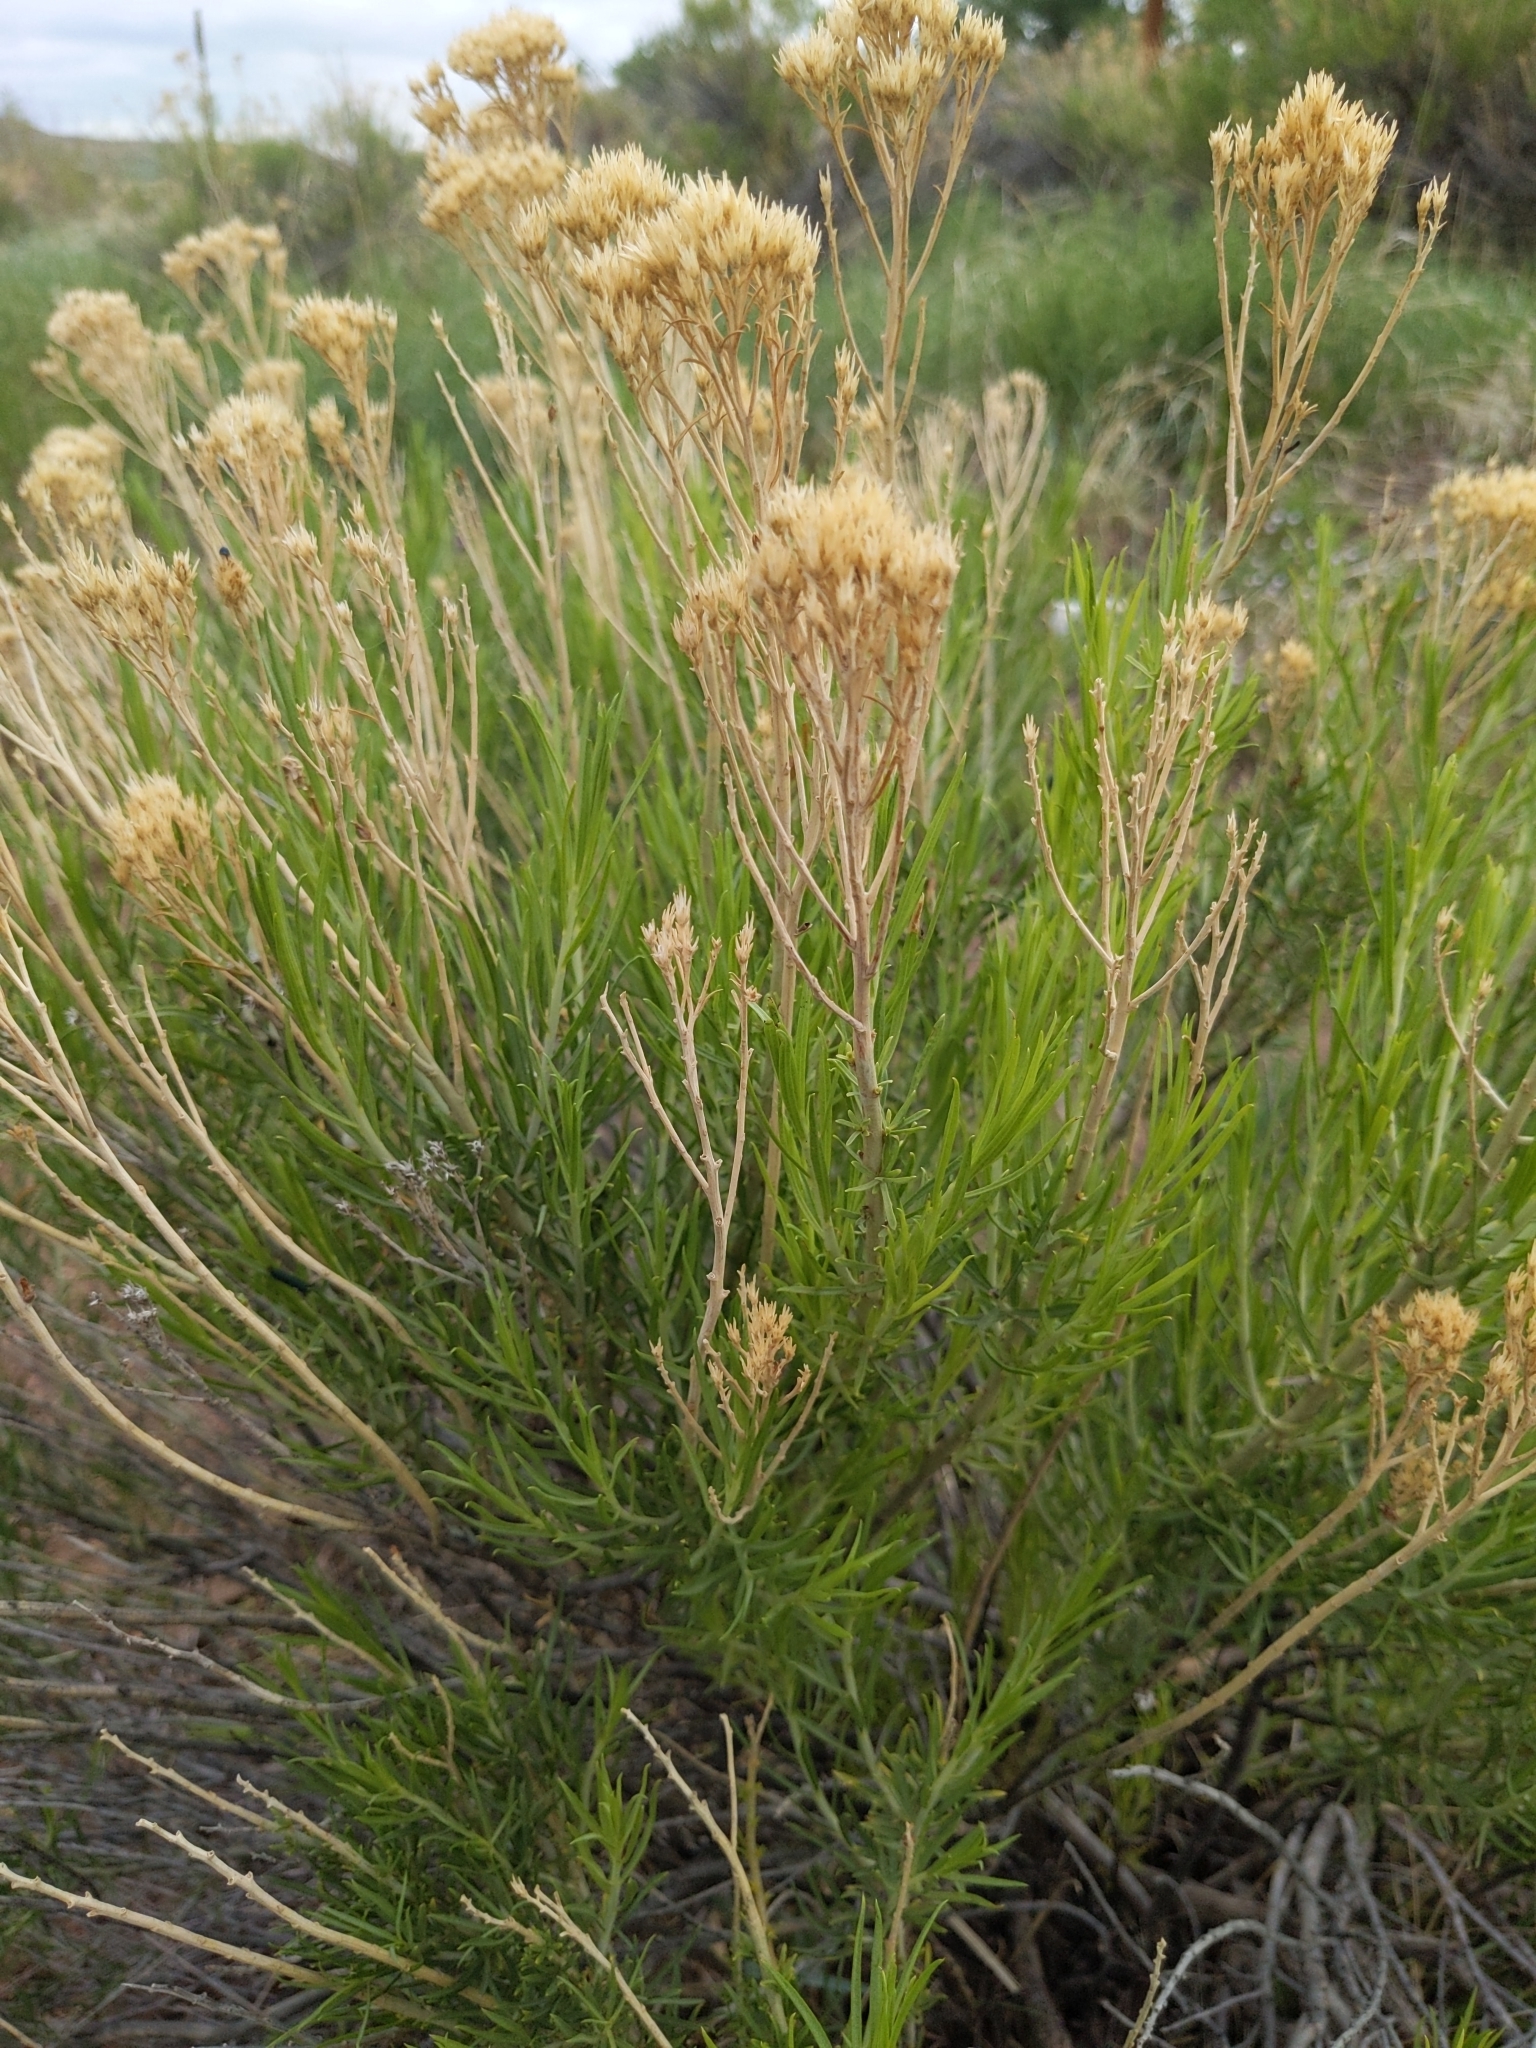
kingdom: Plantae
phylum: Tracheophyta
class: Magnoliopsida
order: Asterales
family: Asteraceae
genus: Ericameria
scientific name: Ericameria nauseosa
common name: Rubber rabbitbrush
